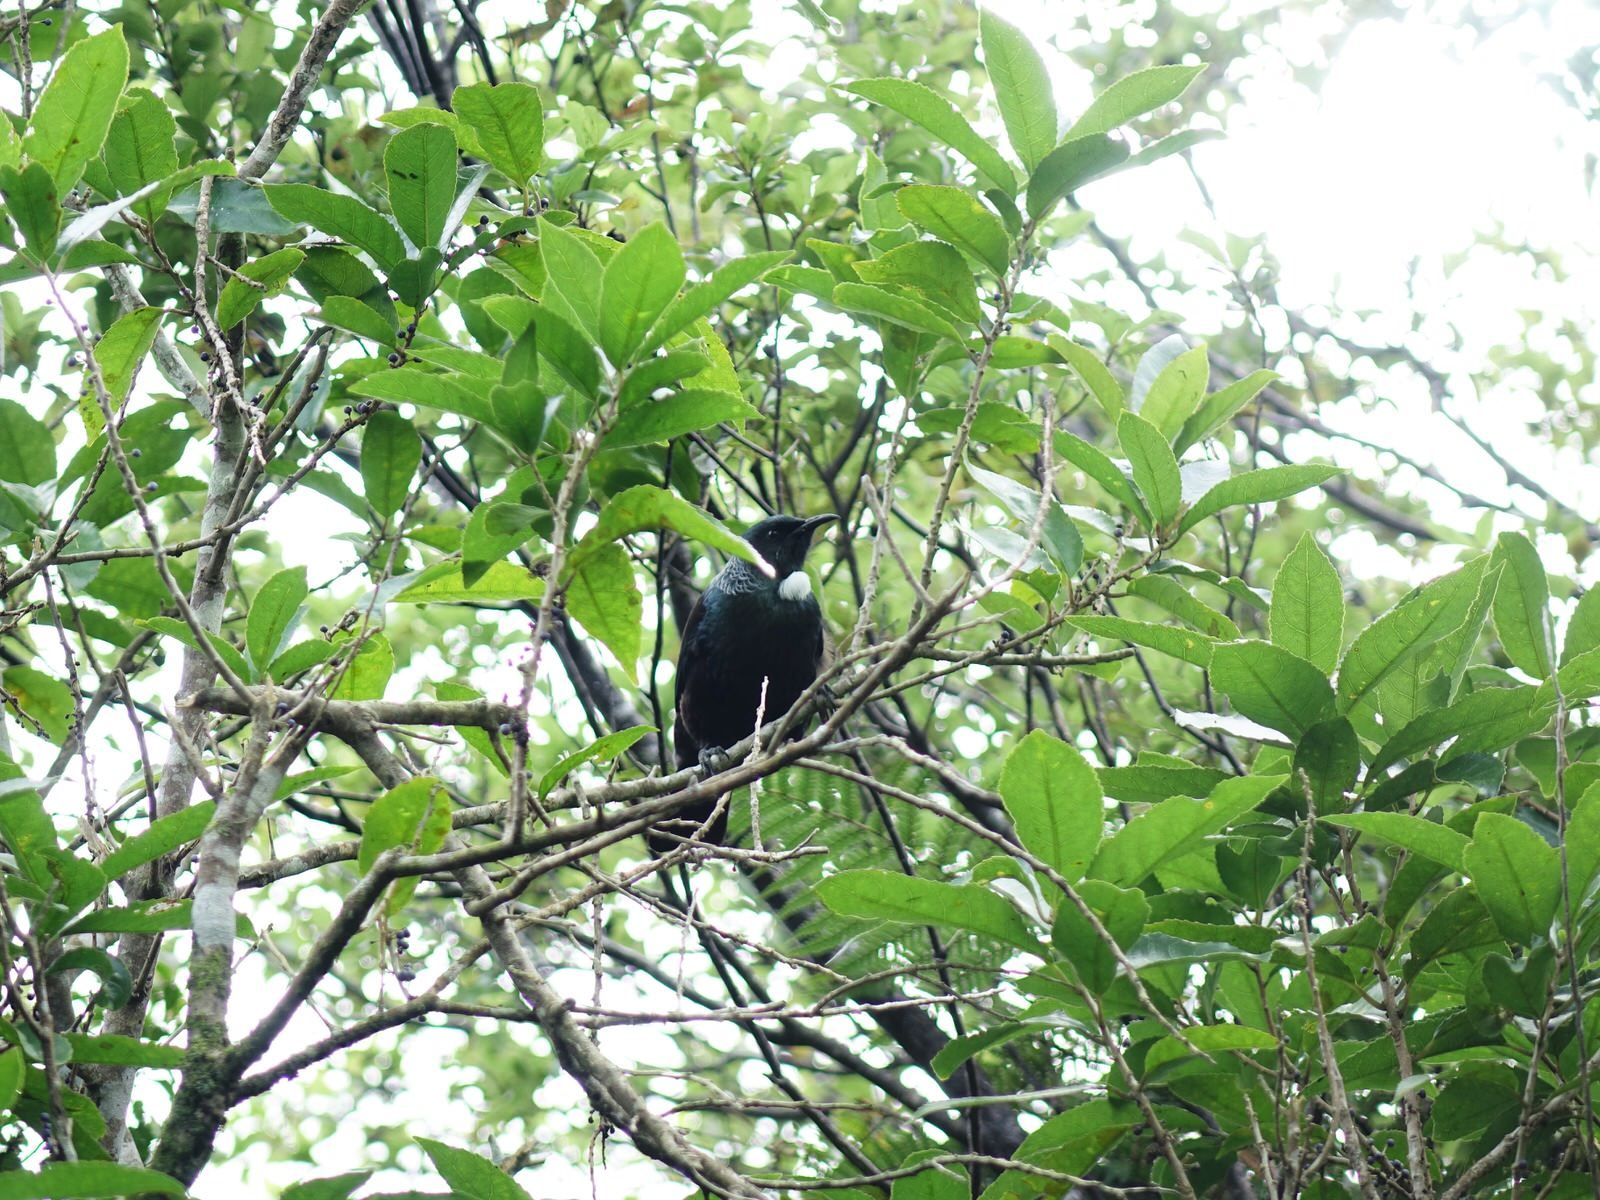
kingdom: Animalia
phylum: Chordata
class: Aves
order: Passeriformes
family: Meliphagidae
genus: Prosthemadera
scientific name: Prosthemadera novaeseelandiae
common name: Tui
